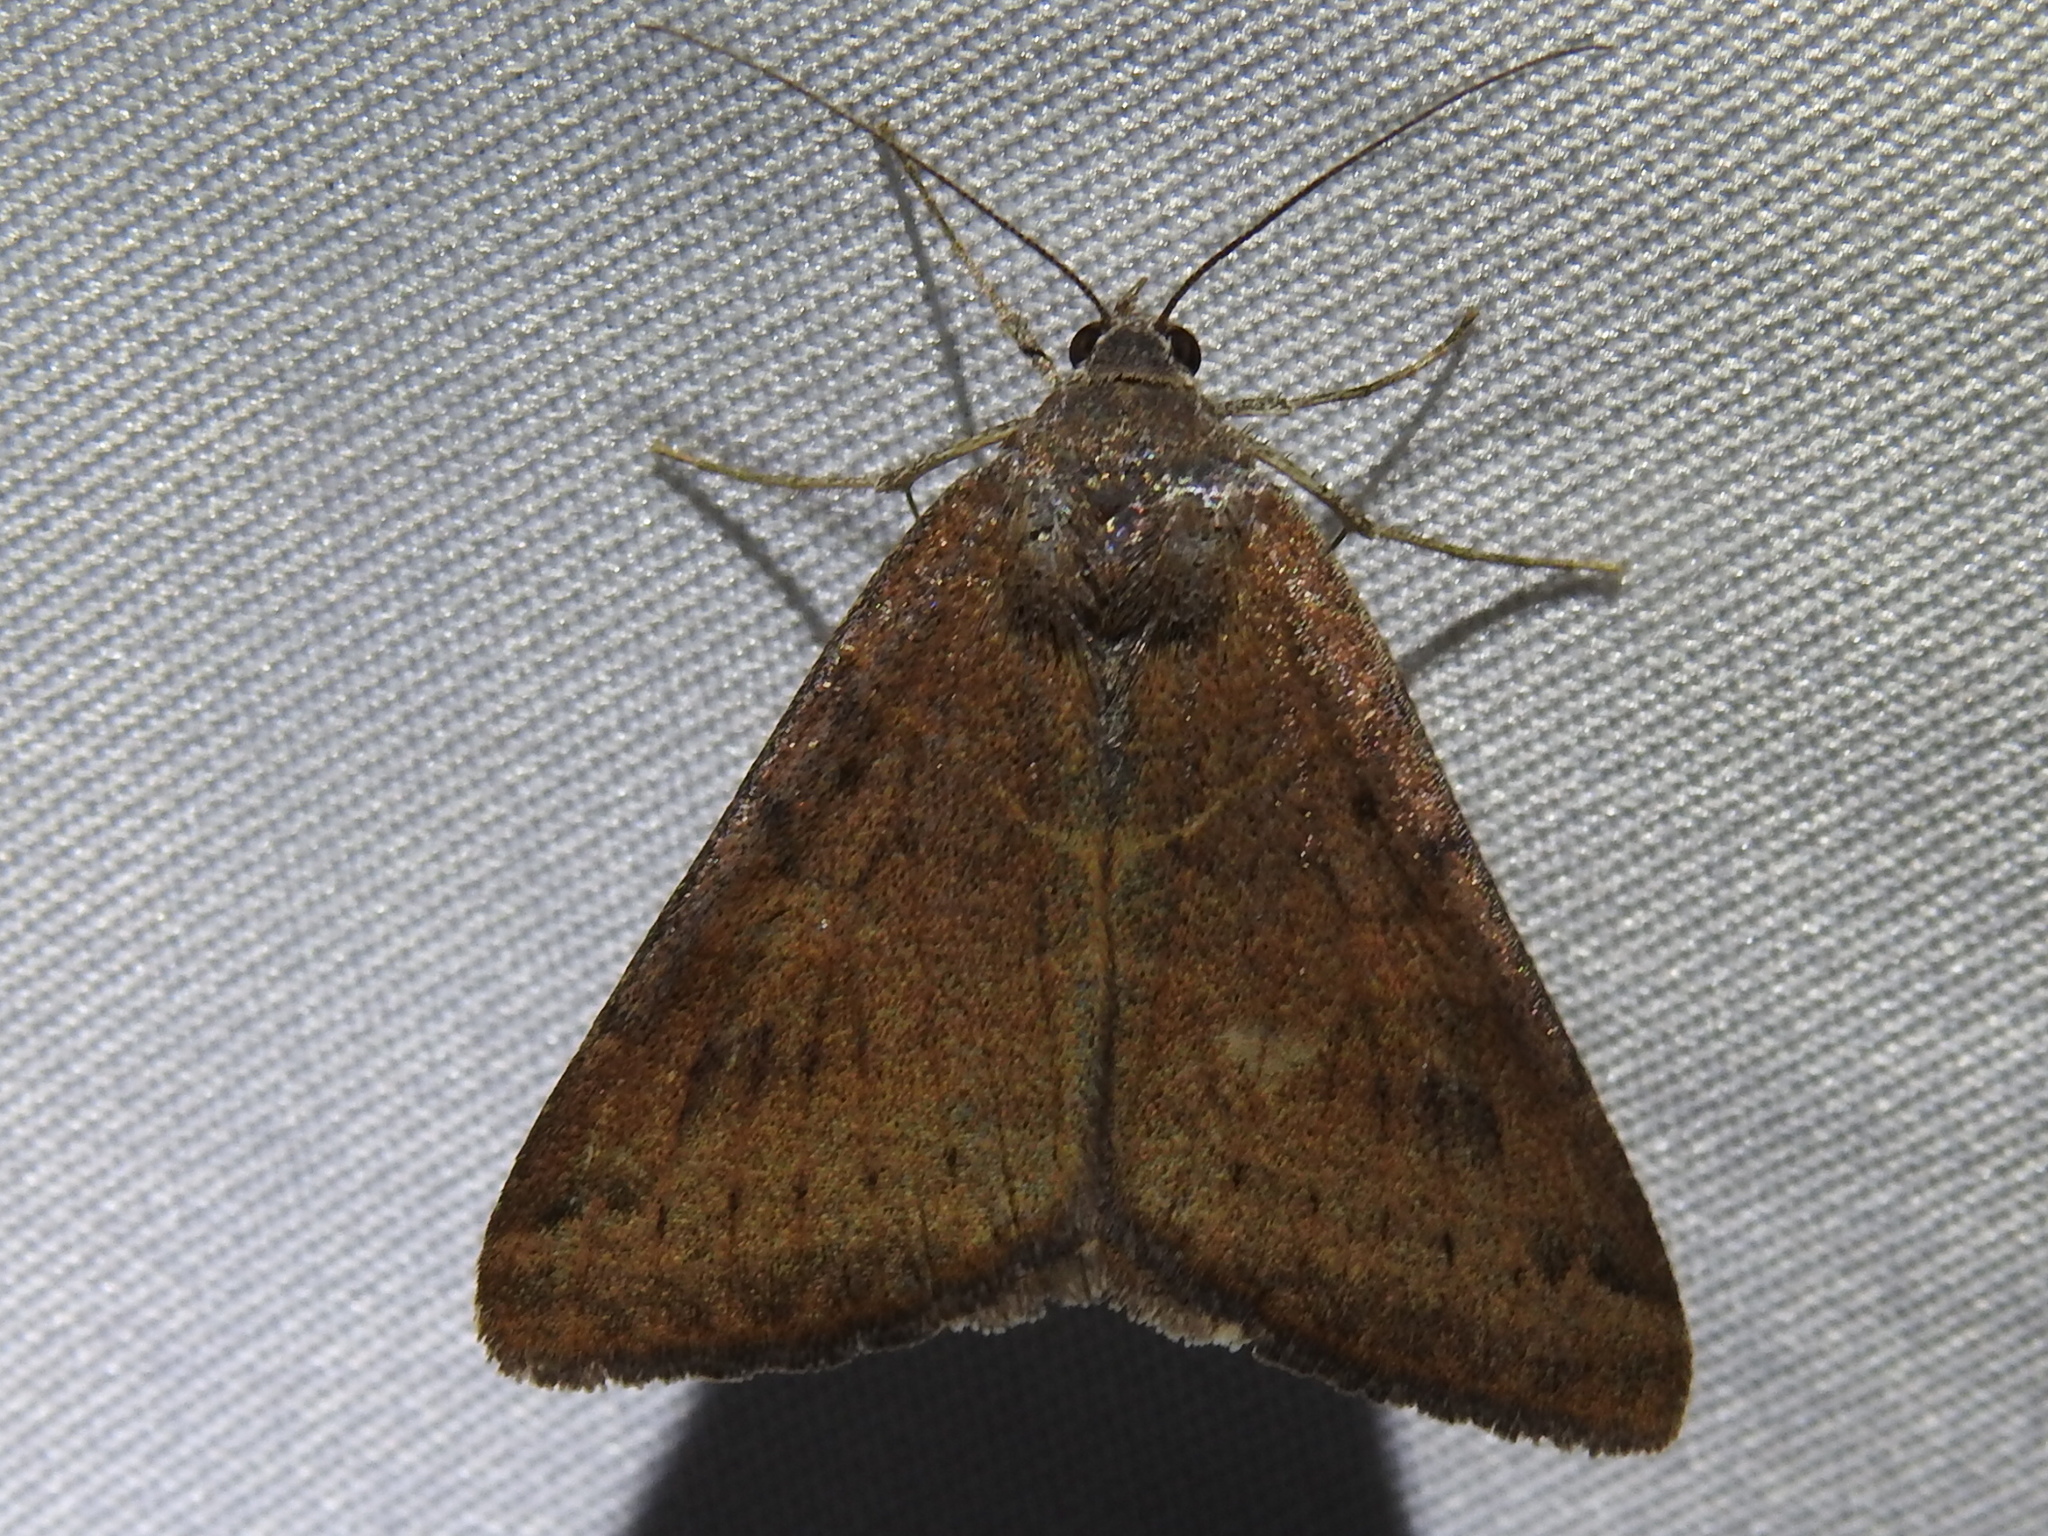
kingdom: Animalia
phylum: Arthropoda
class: Insecta
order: Lepidoptera
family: Erebidae
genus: Caenurgina
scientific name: Caenurgina erechtea
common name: Forage looper moth
